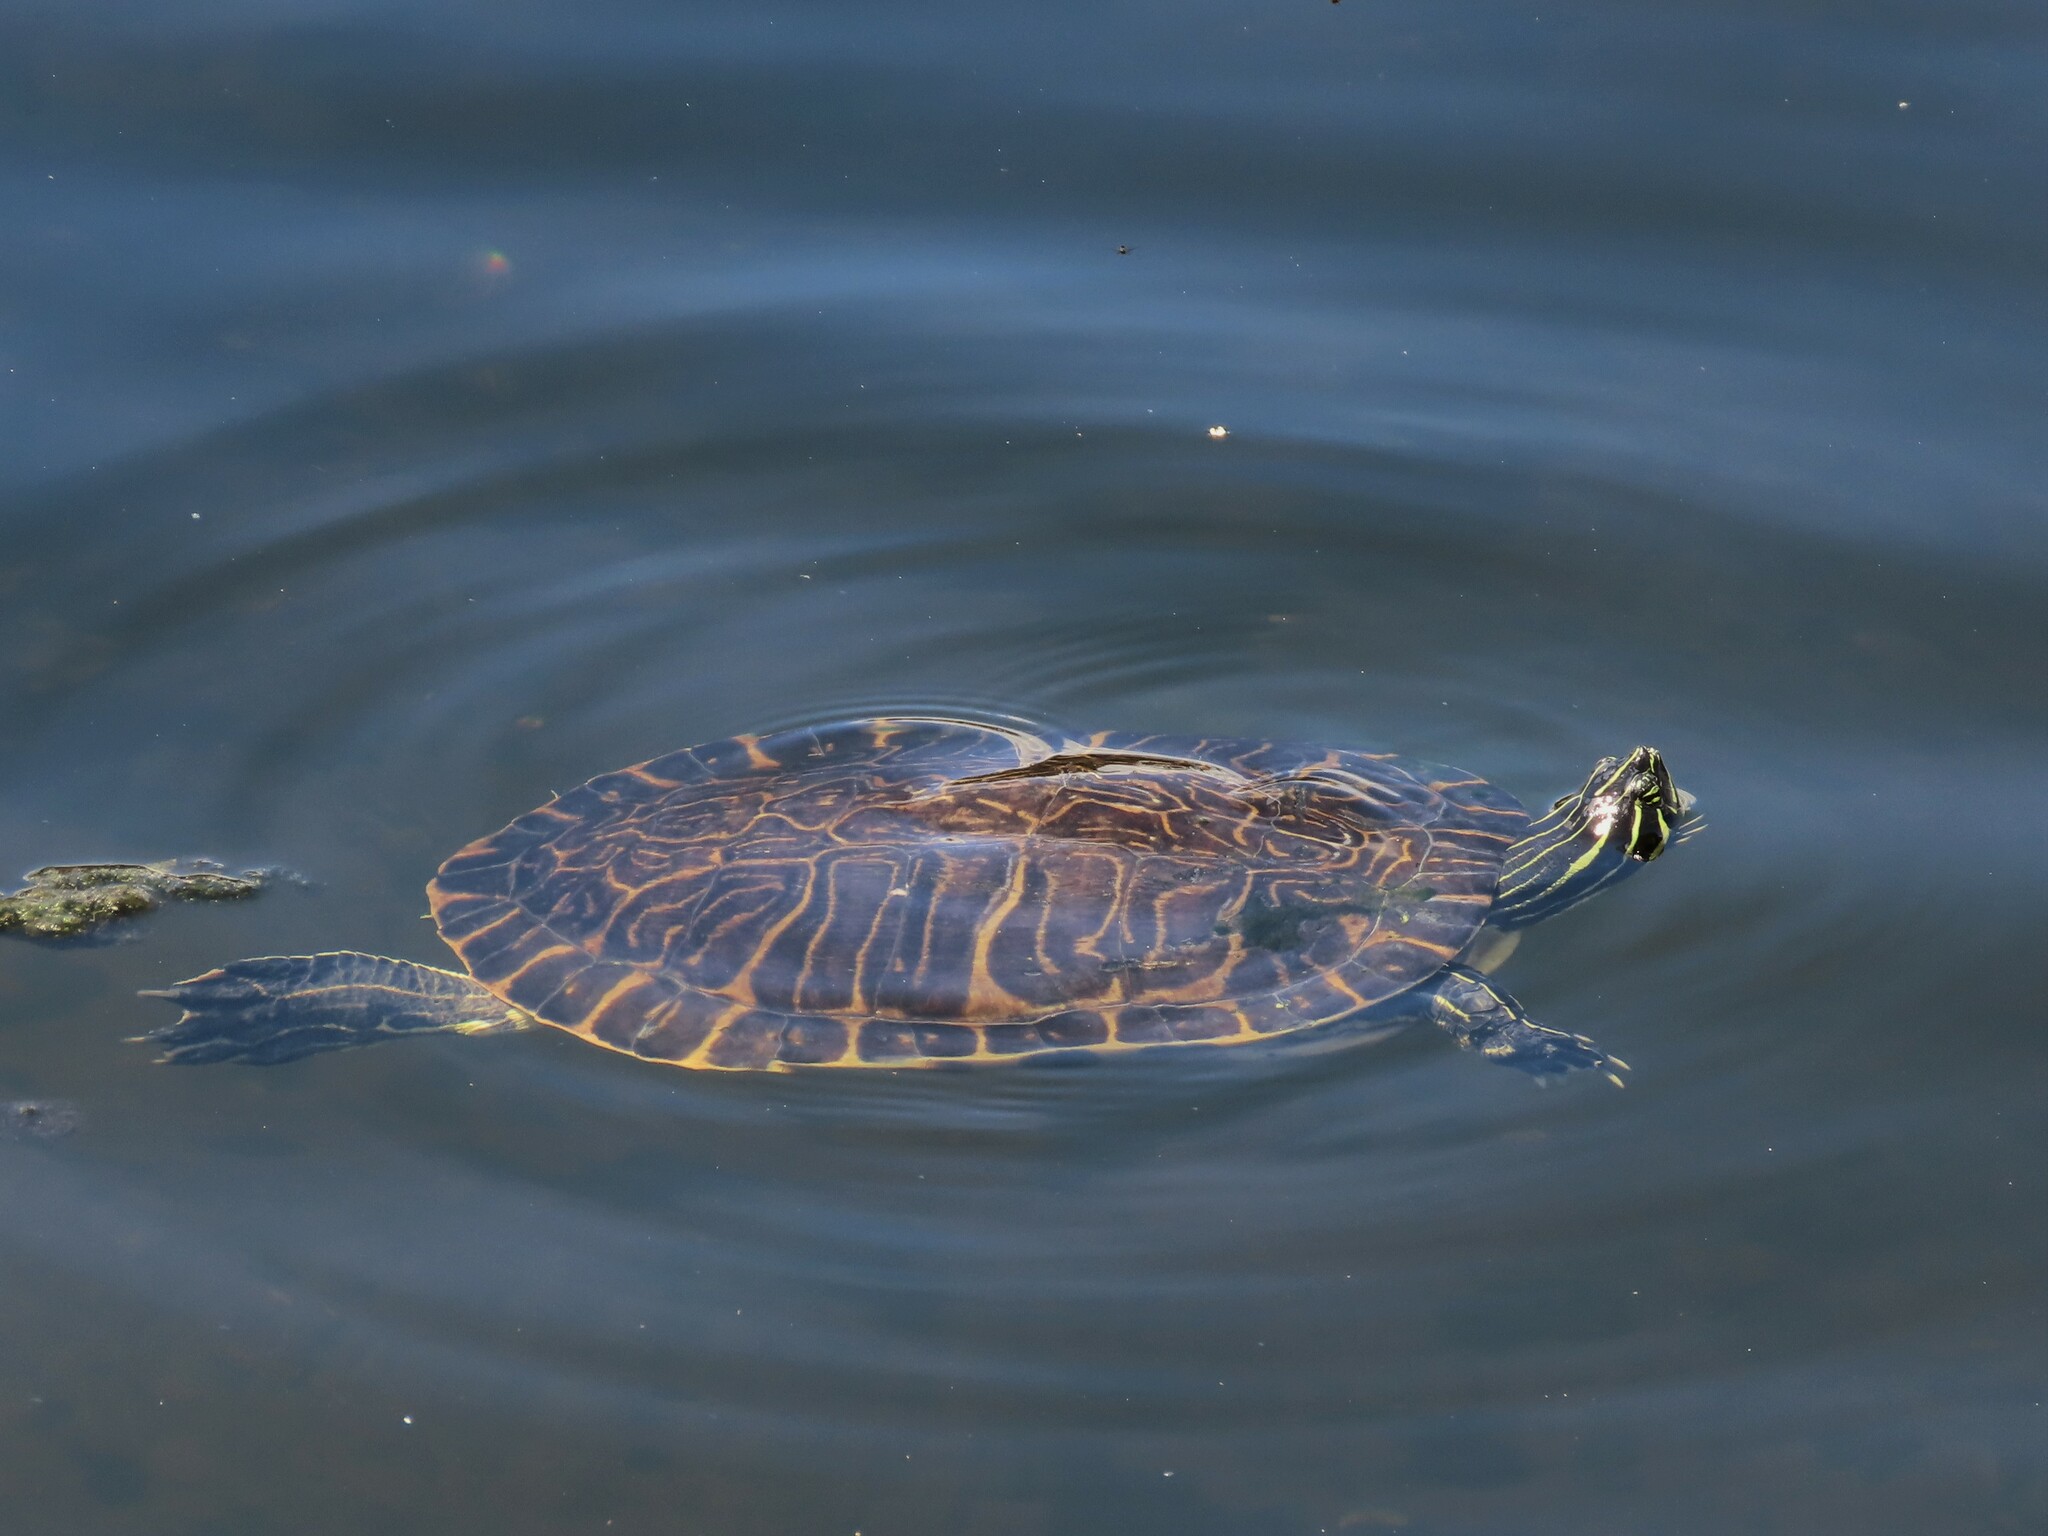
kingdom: Animalia
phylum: Chordata
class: Testudines
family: Emydidae
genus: Pseudemys
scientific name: Pseudemys peninsularis
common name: Peninsula cooter
